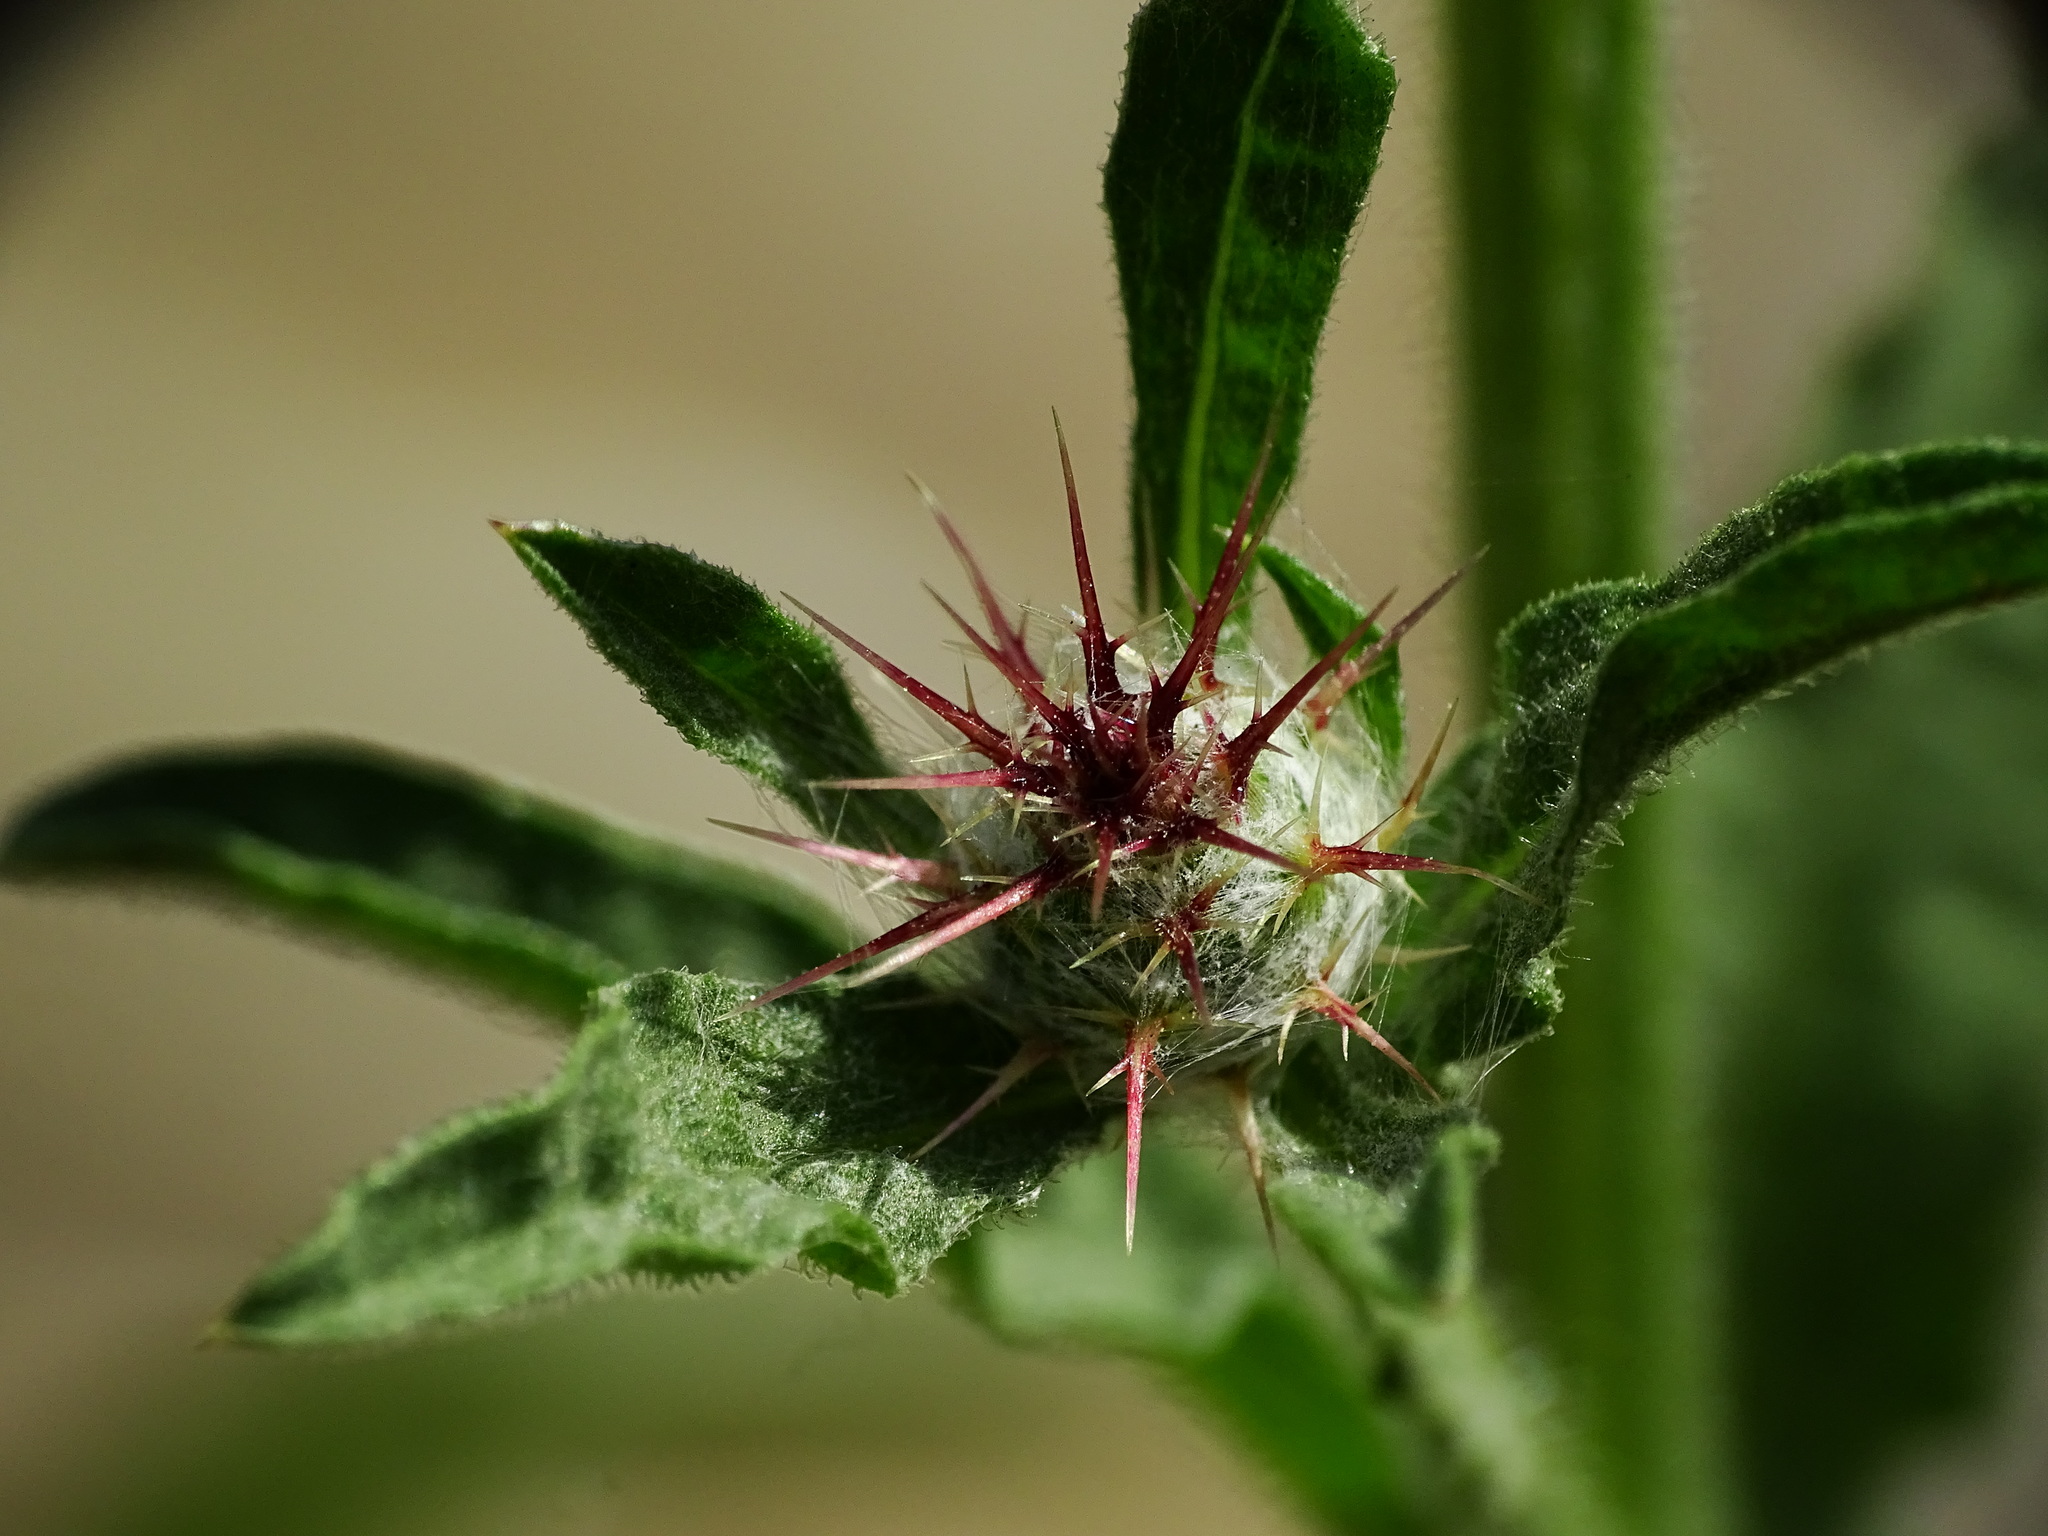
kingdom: Plantae
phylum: Tracheophyta
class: Magnoliopsida
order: Asterales
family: Asteraceae
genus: Centaurea
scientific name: Centaurea melitensis
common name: Maltese star-thistle
